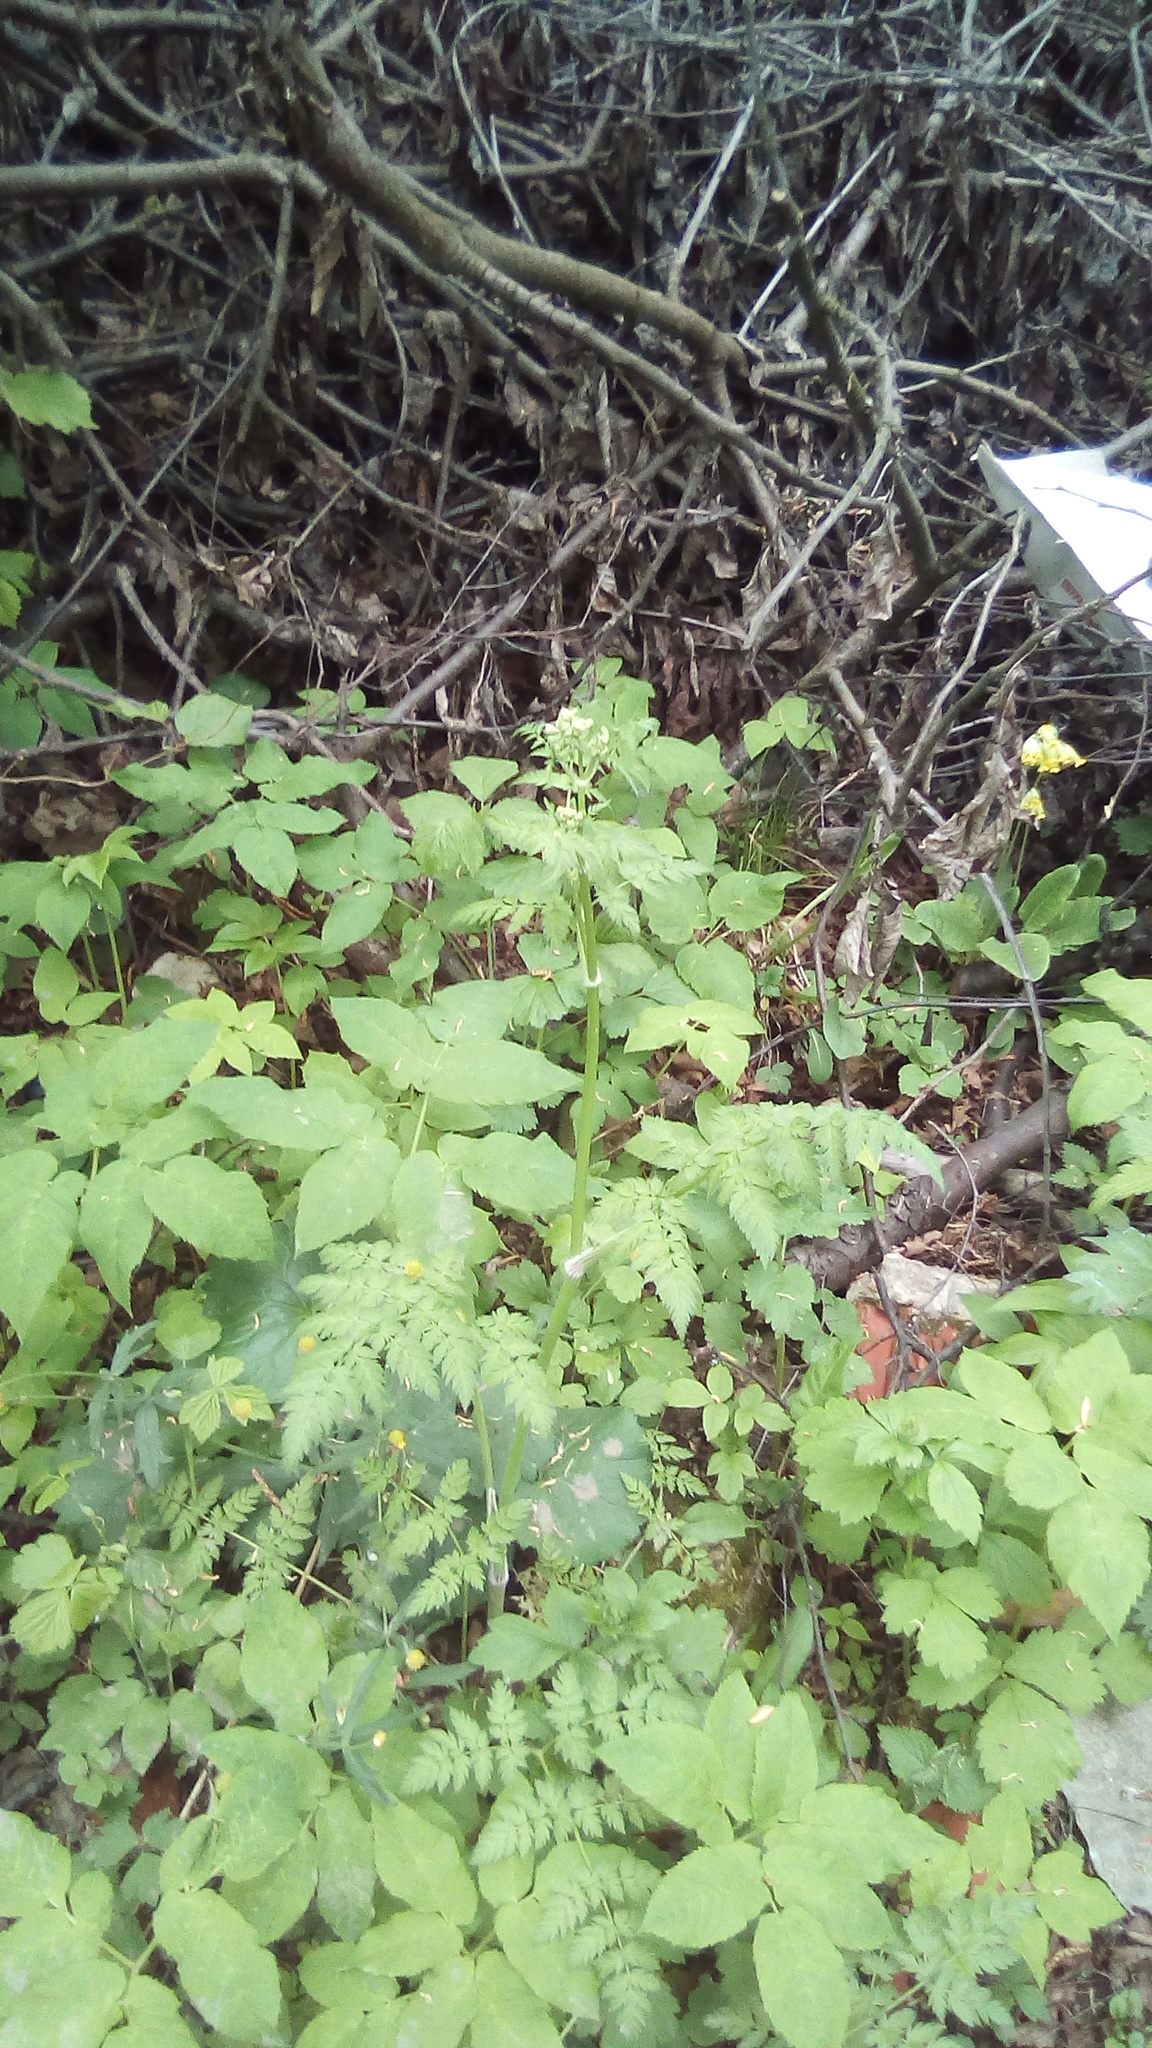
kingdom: Plantae
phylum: Tracheophyta
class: Magnoliopsida
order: Apiales
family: Apiaceae
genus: Anthriscus
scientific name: Anthriscus sylvestris
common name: Cow parsley
